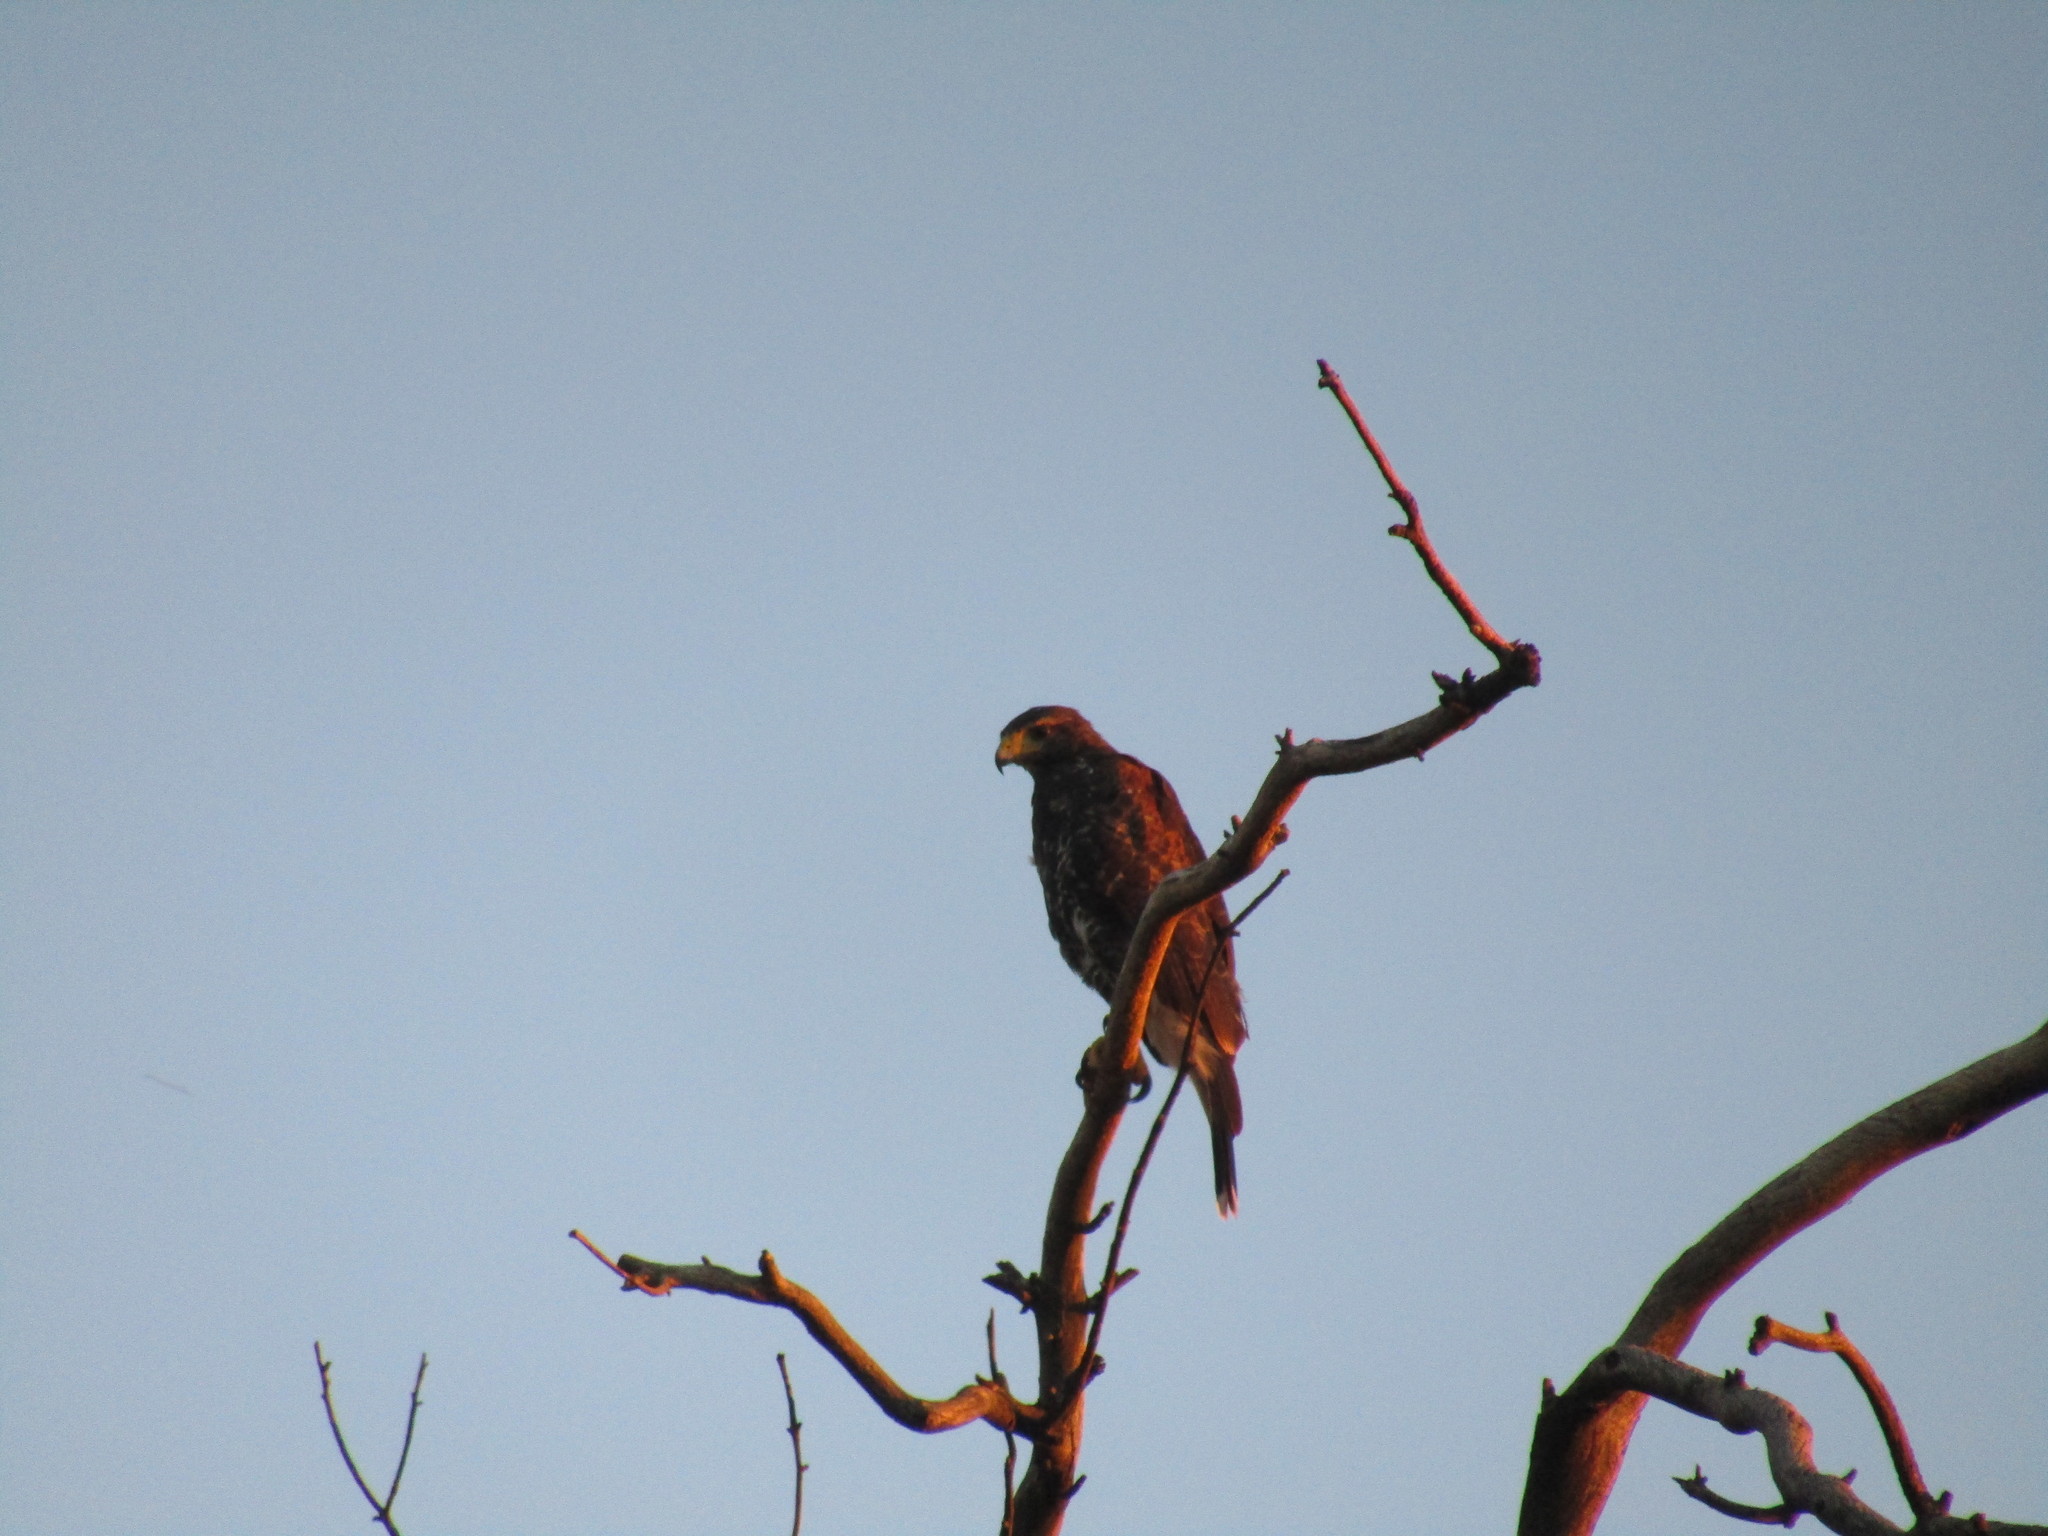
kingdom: Animalia
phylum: Chordata
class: Aves
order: Accipitriformes
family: Accipitridae
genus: Parabuteo
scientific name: Parabuteo unicinctus
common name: Harris's hawk
